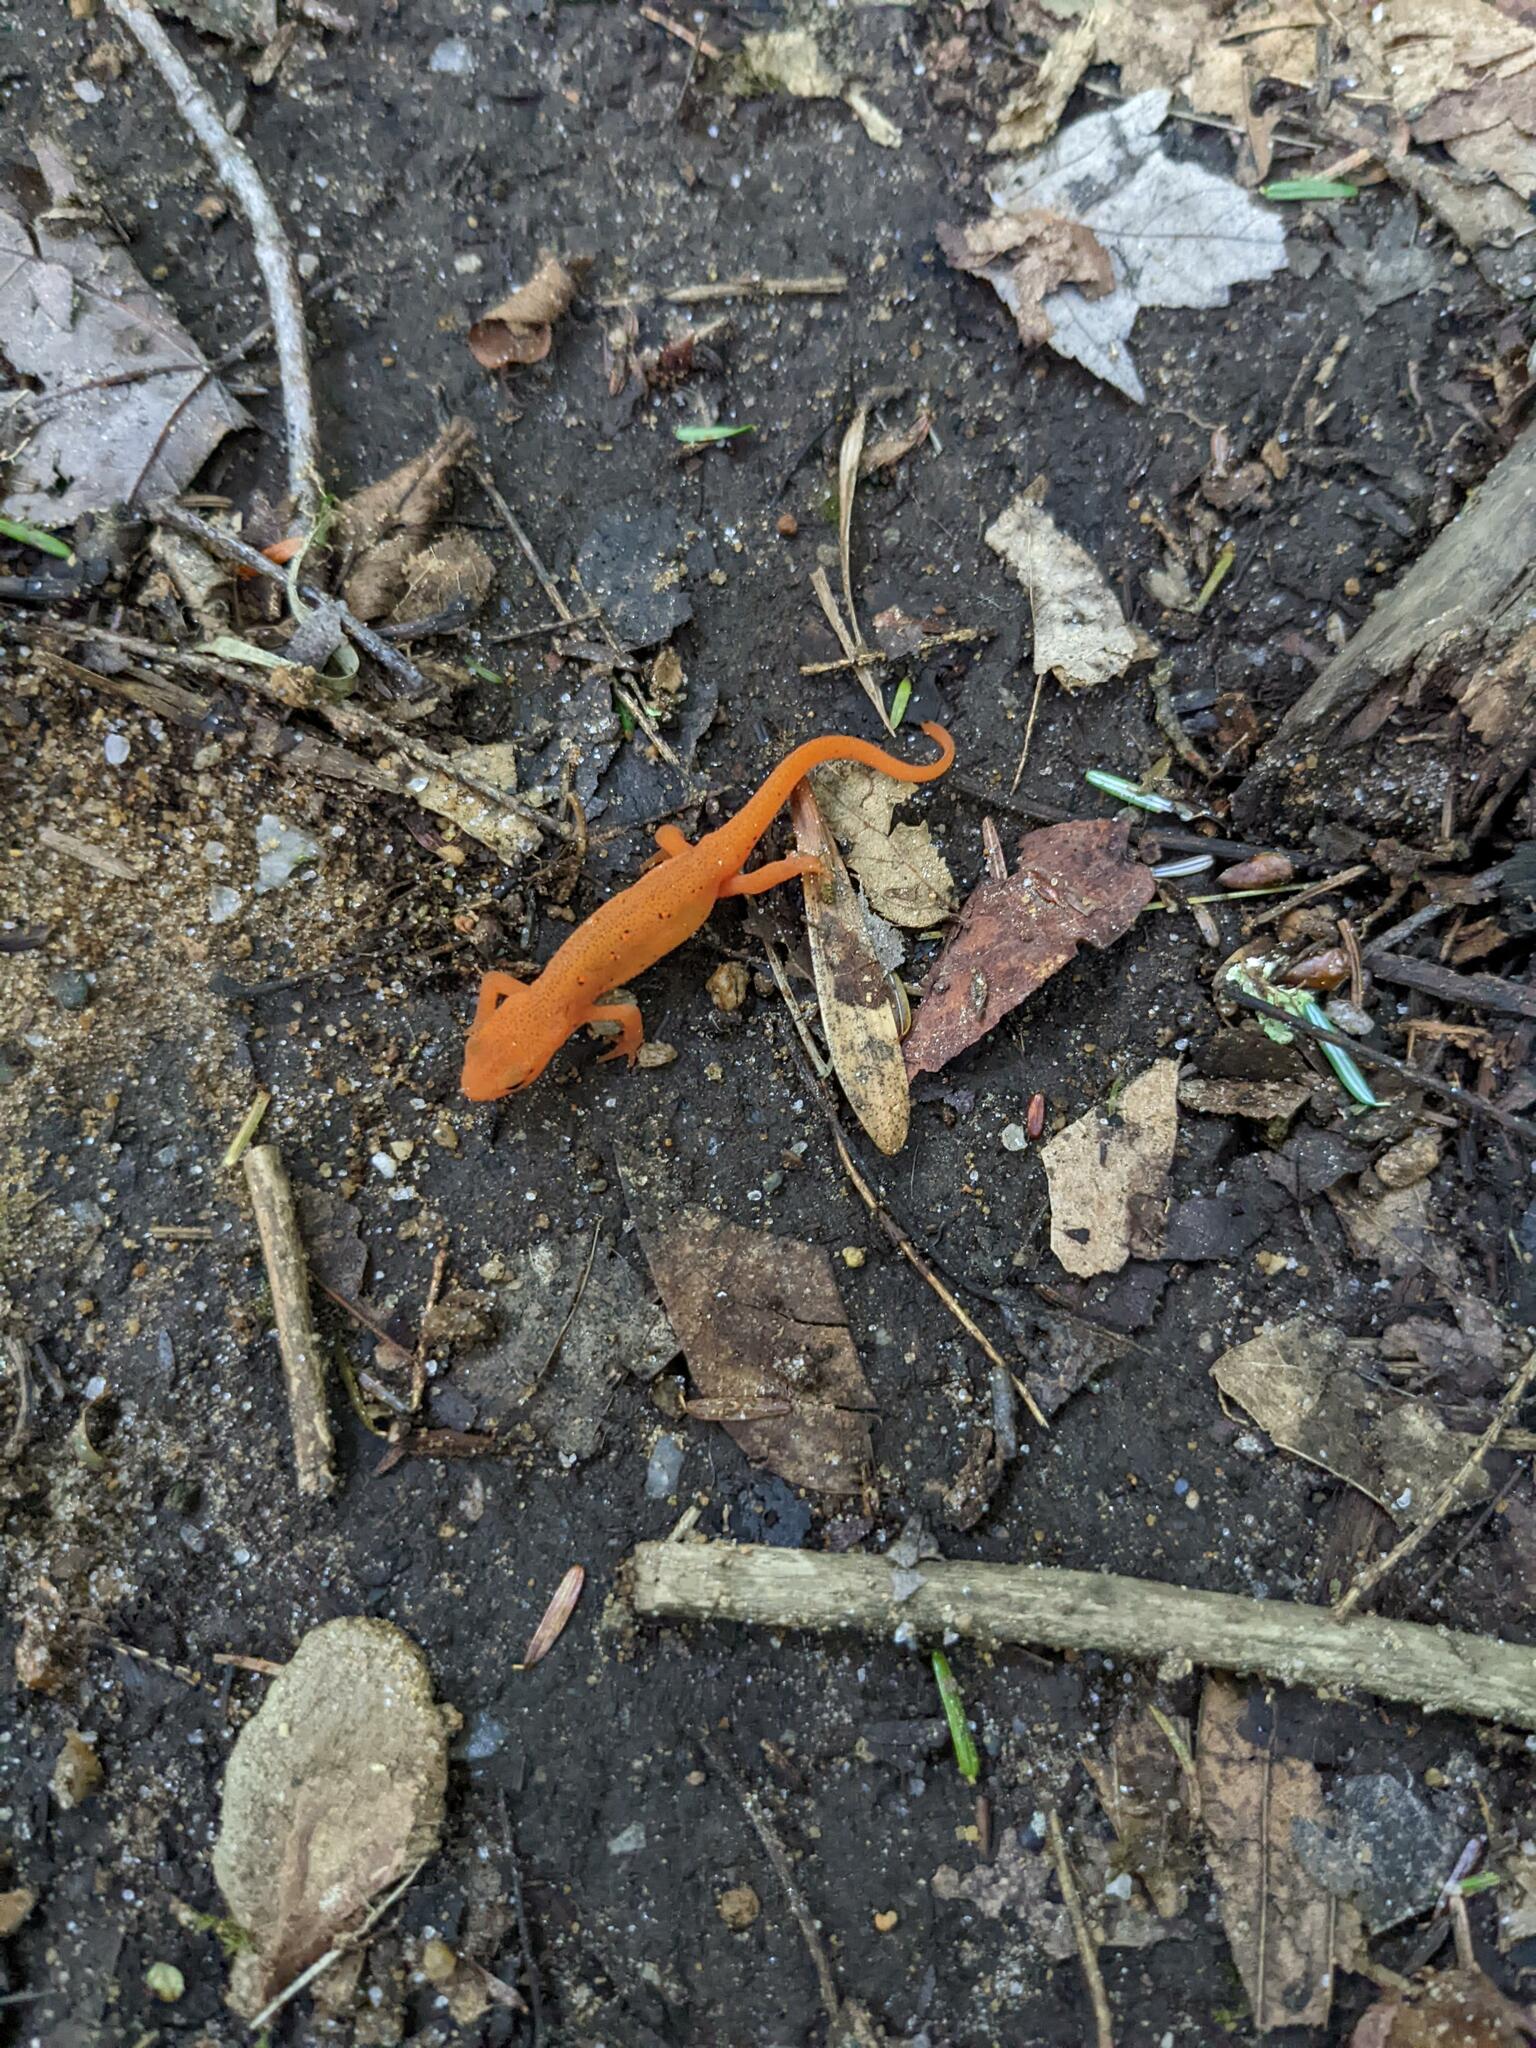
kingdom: Animalia
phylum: Chordata
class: Amphibia
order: Caudata
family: Salamandridae
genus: Notophthalmus
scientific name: Notophthalmus viridescens
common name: Eastern newt
